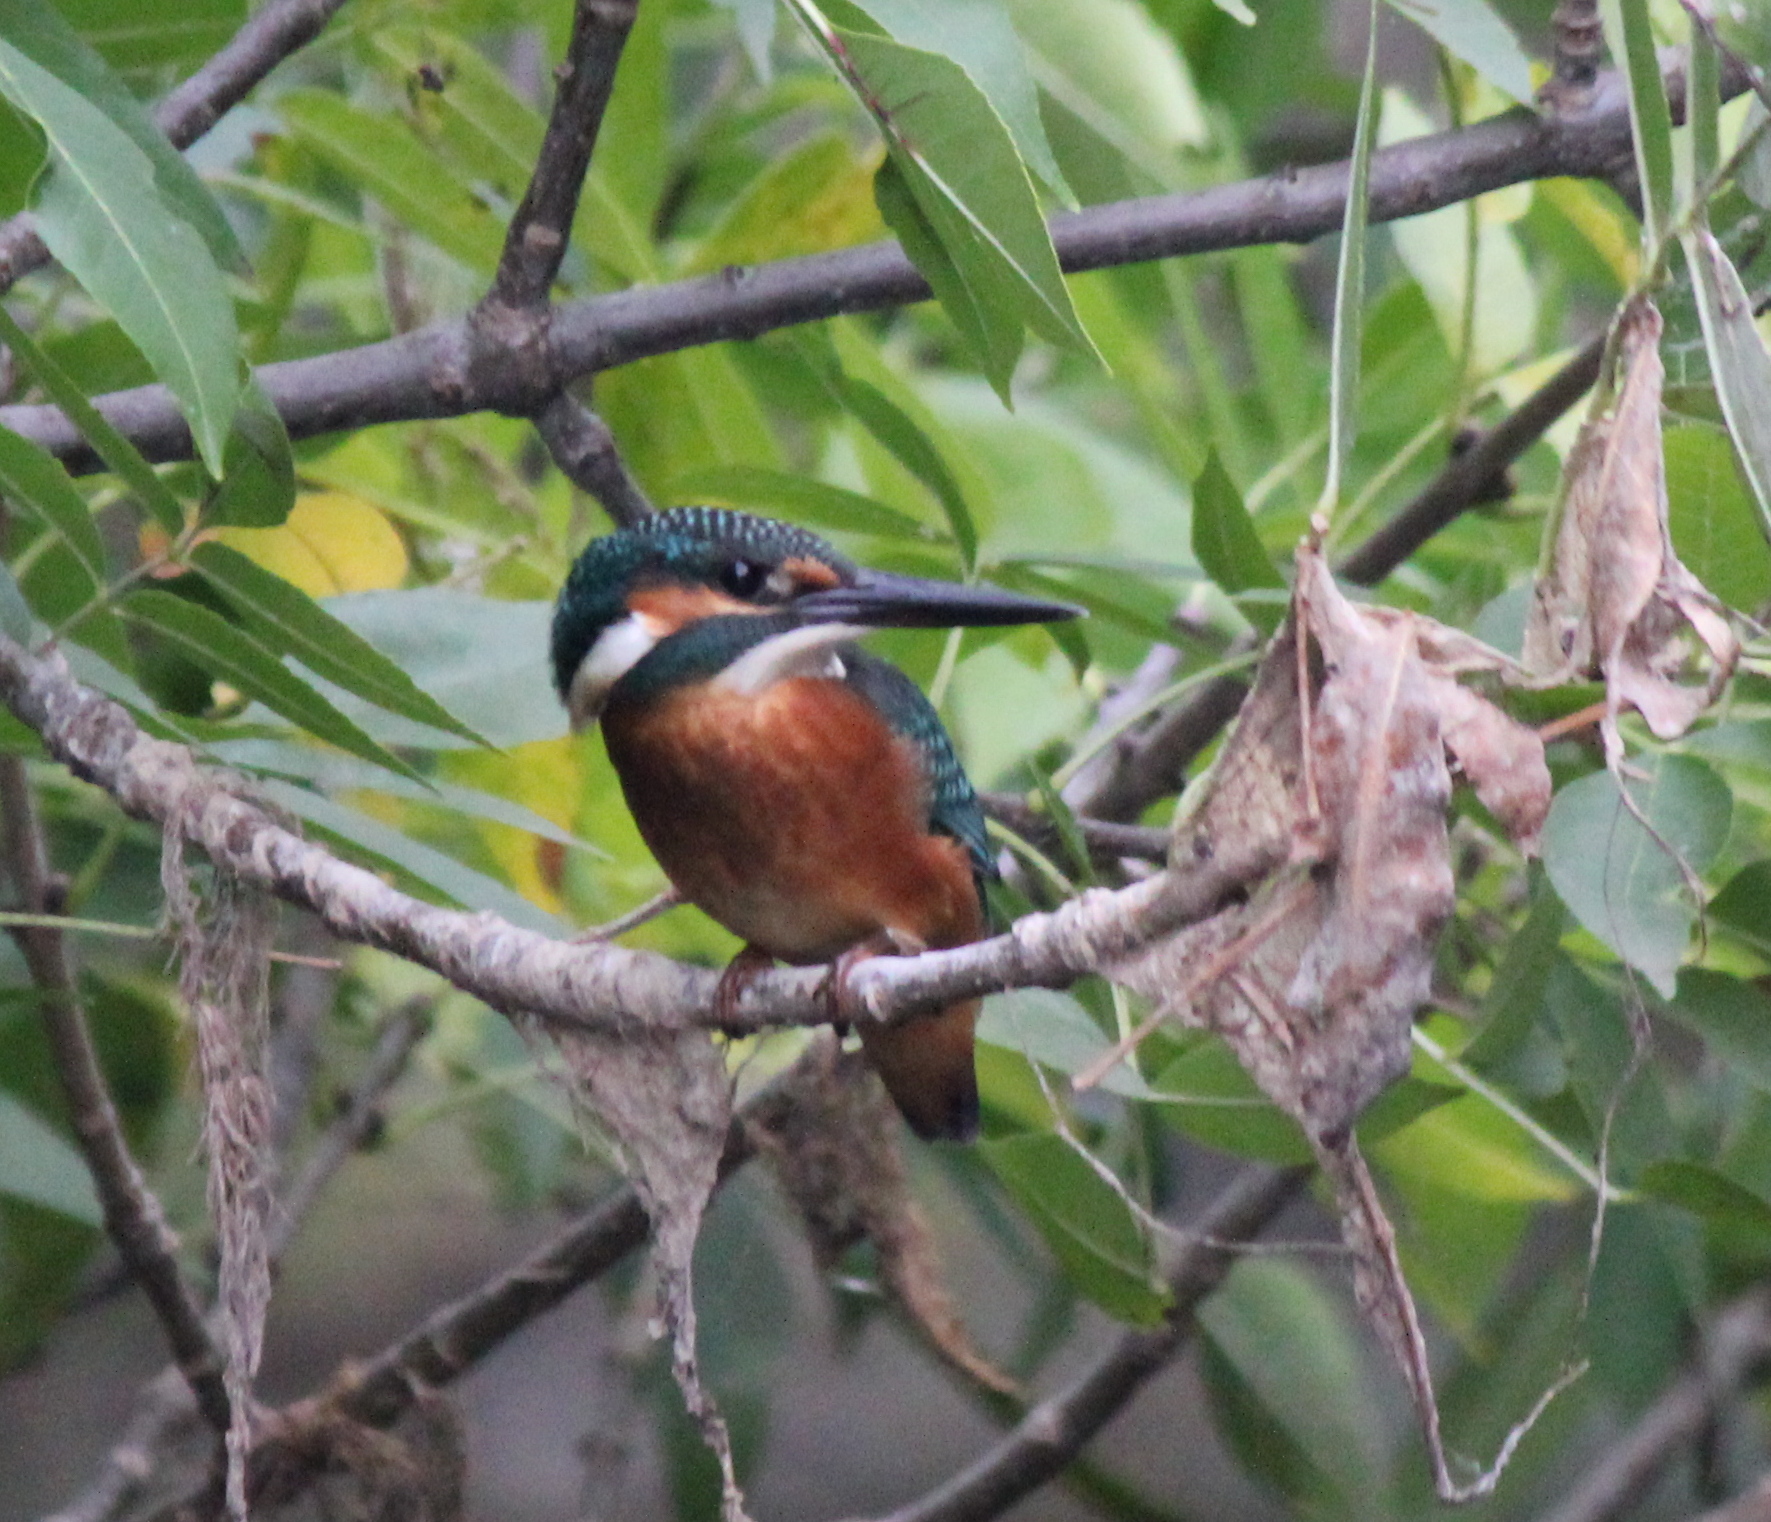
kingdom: Animalia
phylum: Chordata
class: Aves
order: Coraciiformes
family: Alcedinidae
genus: Alcedo
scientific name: Alcedo atthis
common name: Common kingfisher
